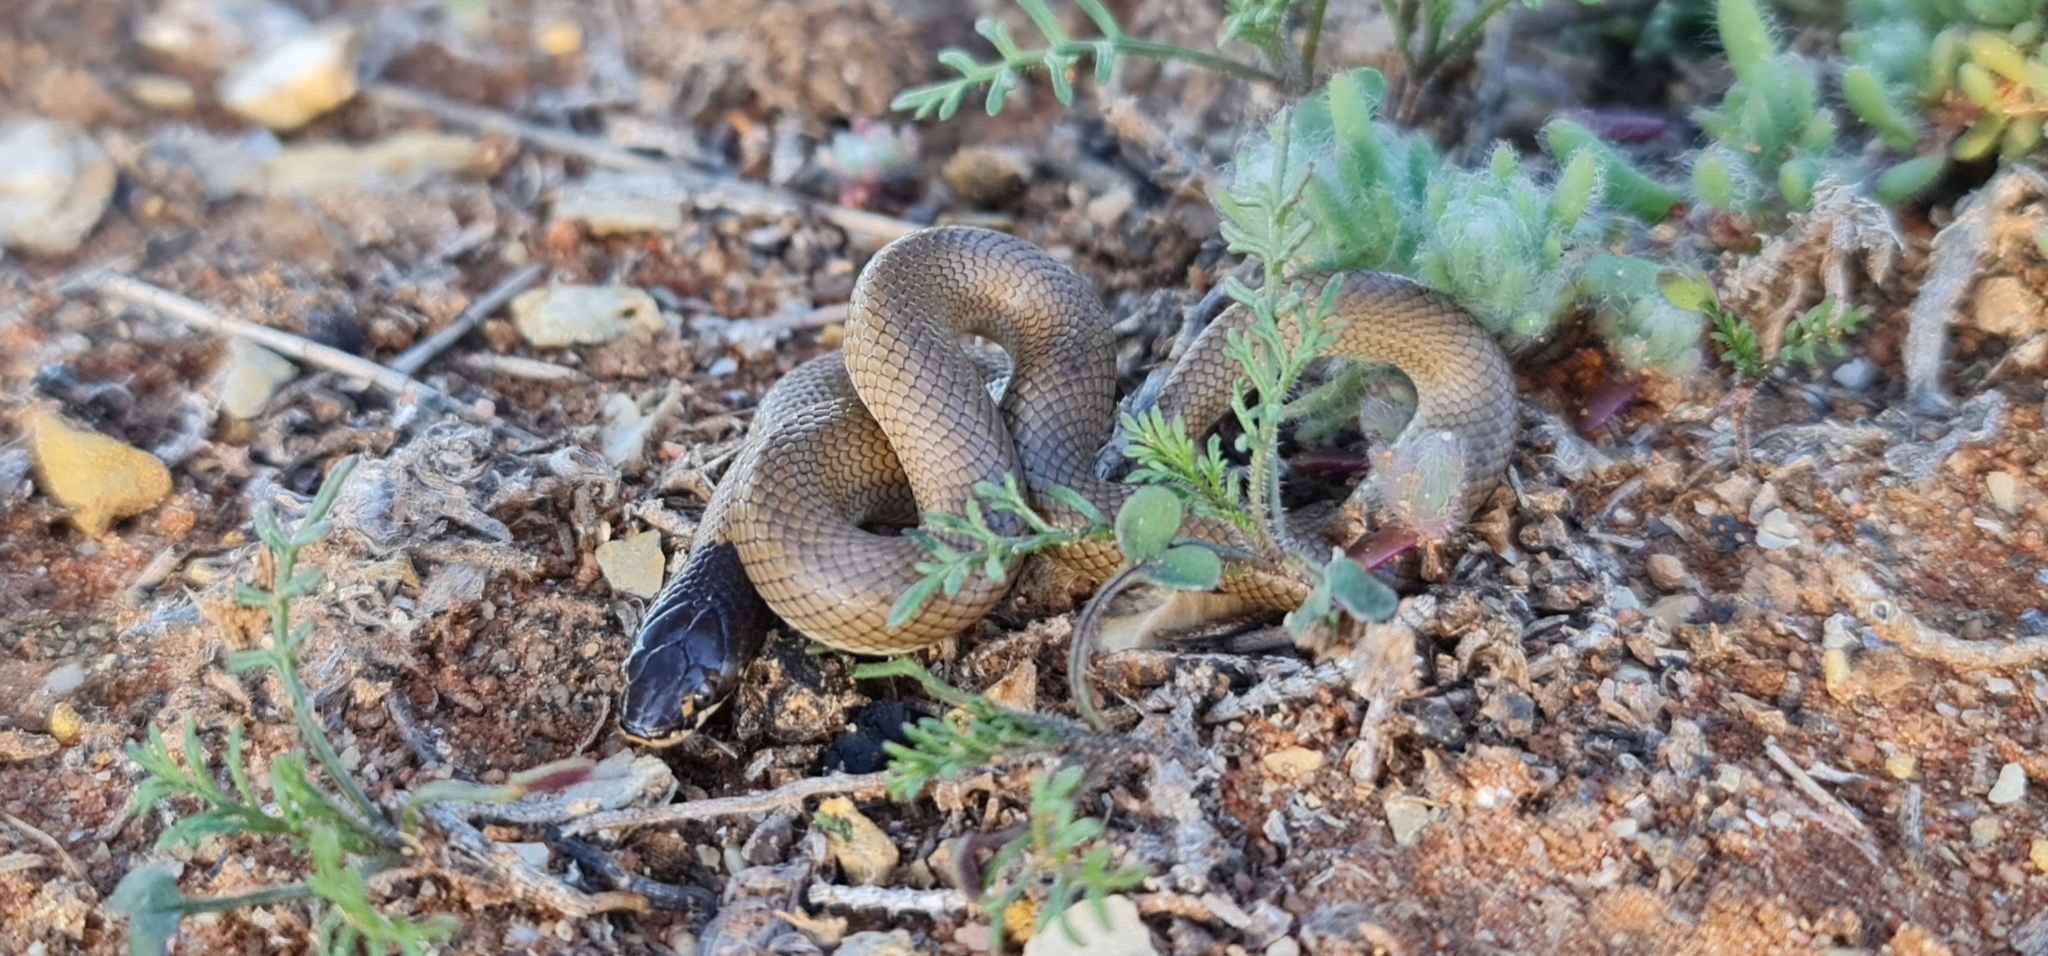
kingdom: Animalia
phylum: Chordata
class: Squamata
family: Elapidae
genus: Suta
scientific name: Suta suta
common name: Curl snake
